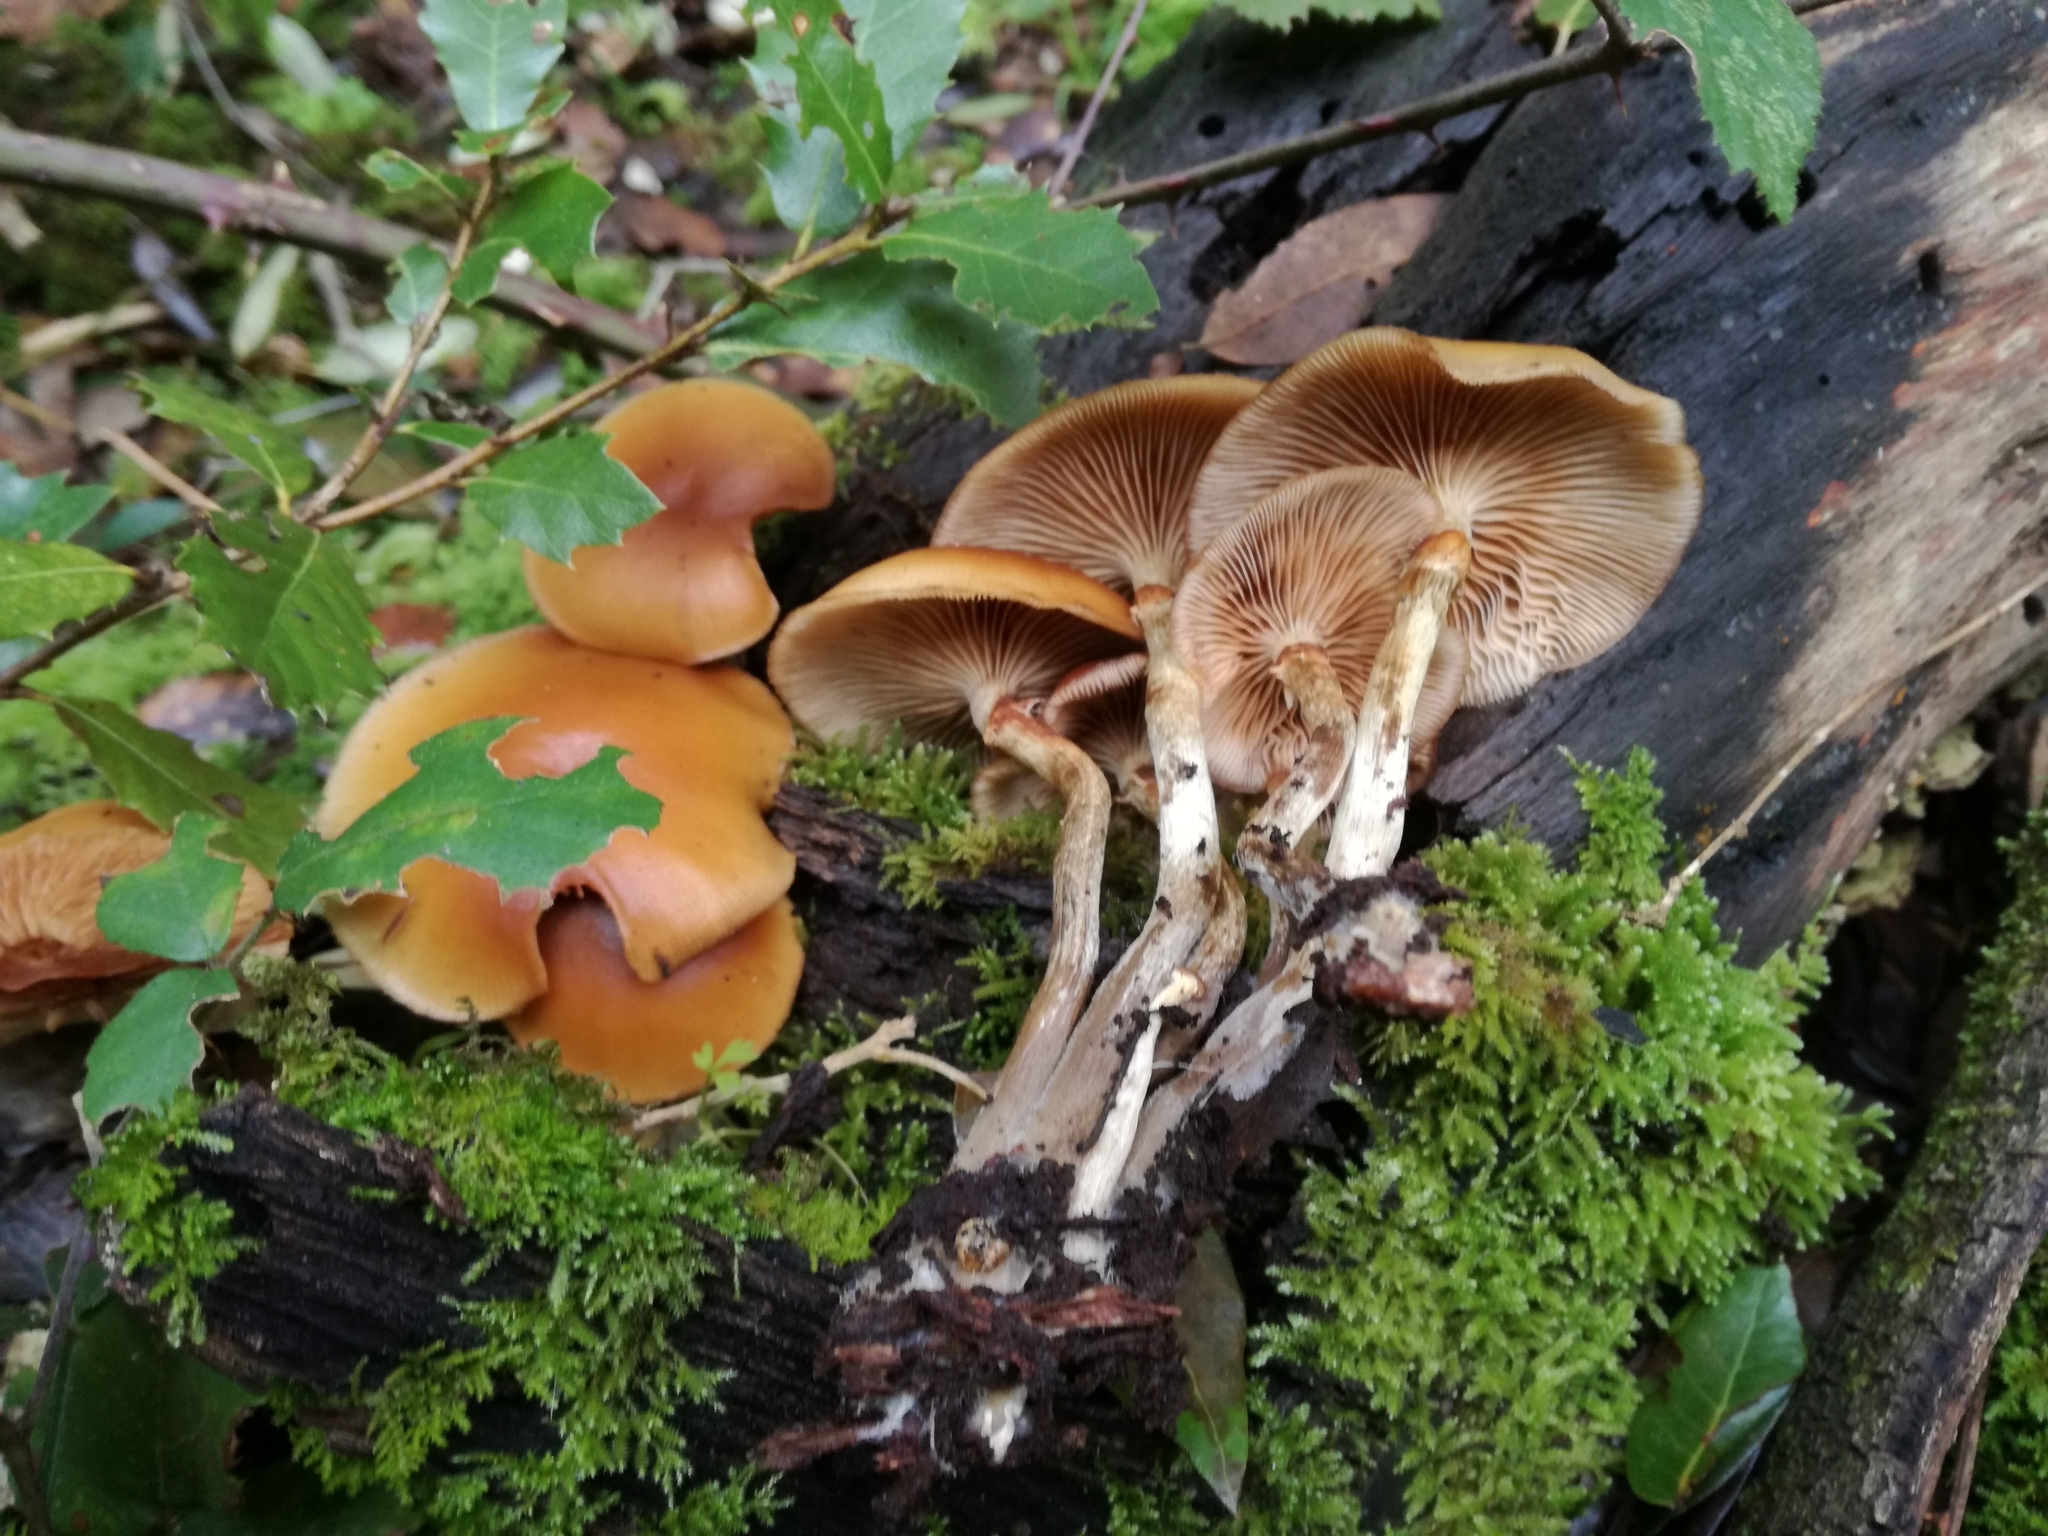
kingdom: Fungi
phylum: Basidiomycota
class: Agaricomycetes
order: Agaricales
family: Hymenogastraceae
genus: Galerina
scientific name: Galerina marginata
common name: Funeral bell
